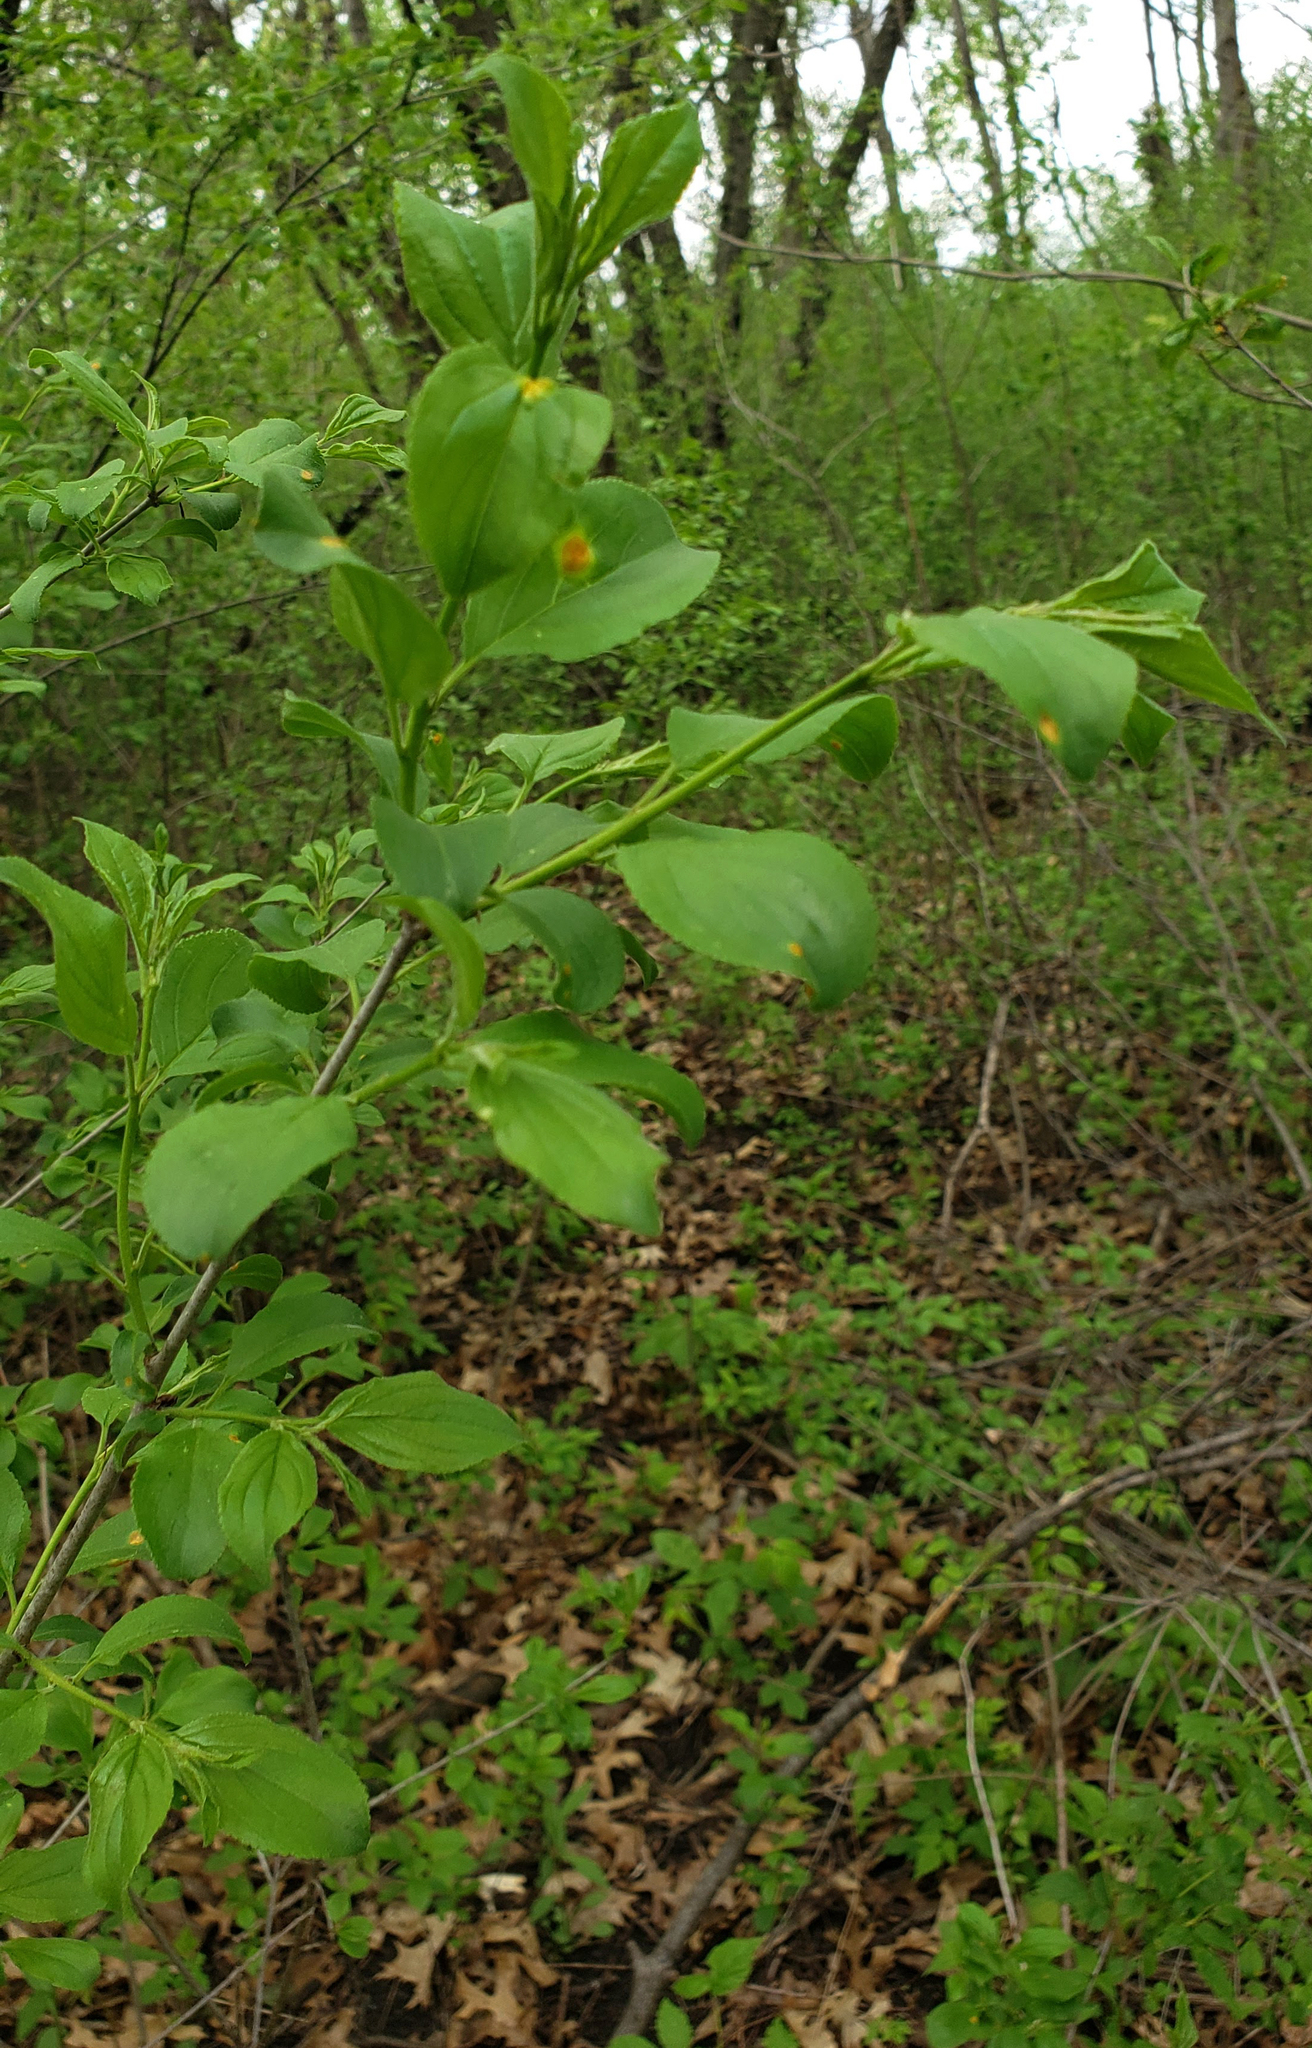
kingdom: Plantae
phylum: Tracheophyta
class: Magnoliopsida
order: Rosales
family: Rhamnaceae
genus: Rhamnus
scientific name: Rhamnus cathartica
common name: Common buckthorn
